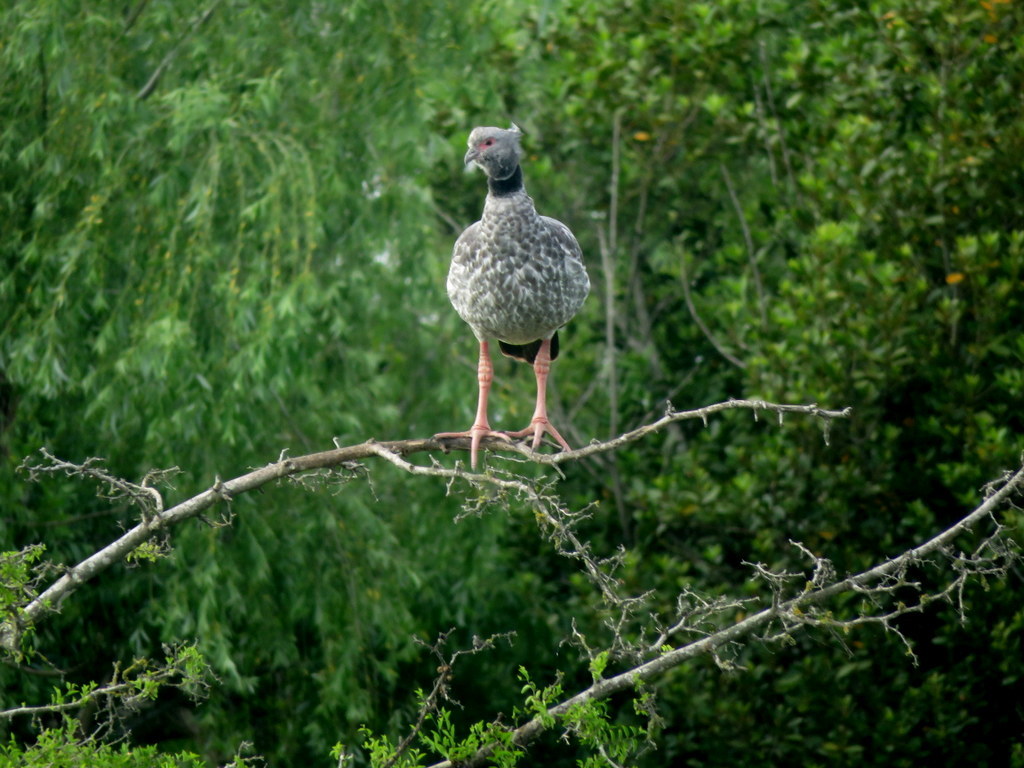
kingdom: Animalia
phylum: Chordata
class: Aves
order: Anseriformes
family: Anhimidae
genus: Chauna
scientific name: Chauna torquata
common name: Southern screamer
